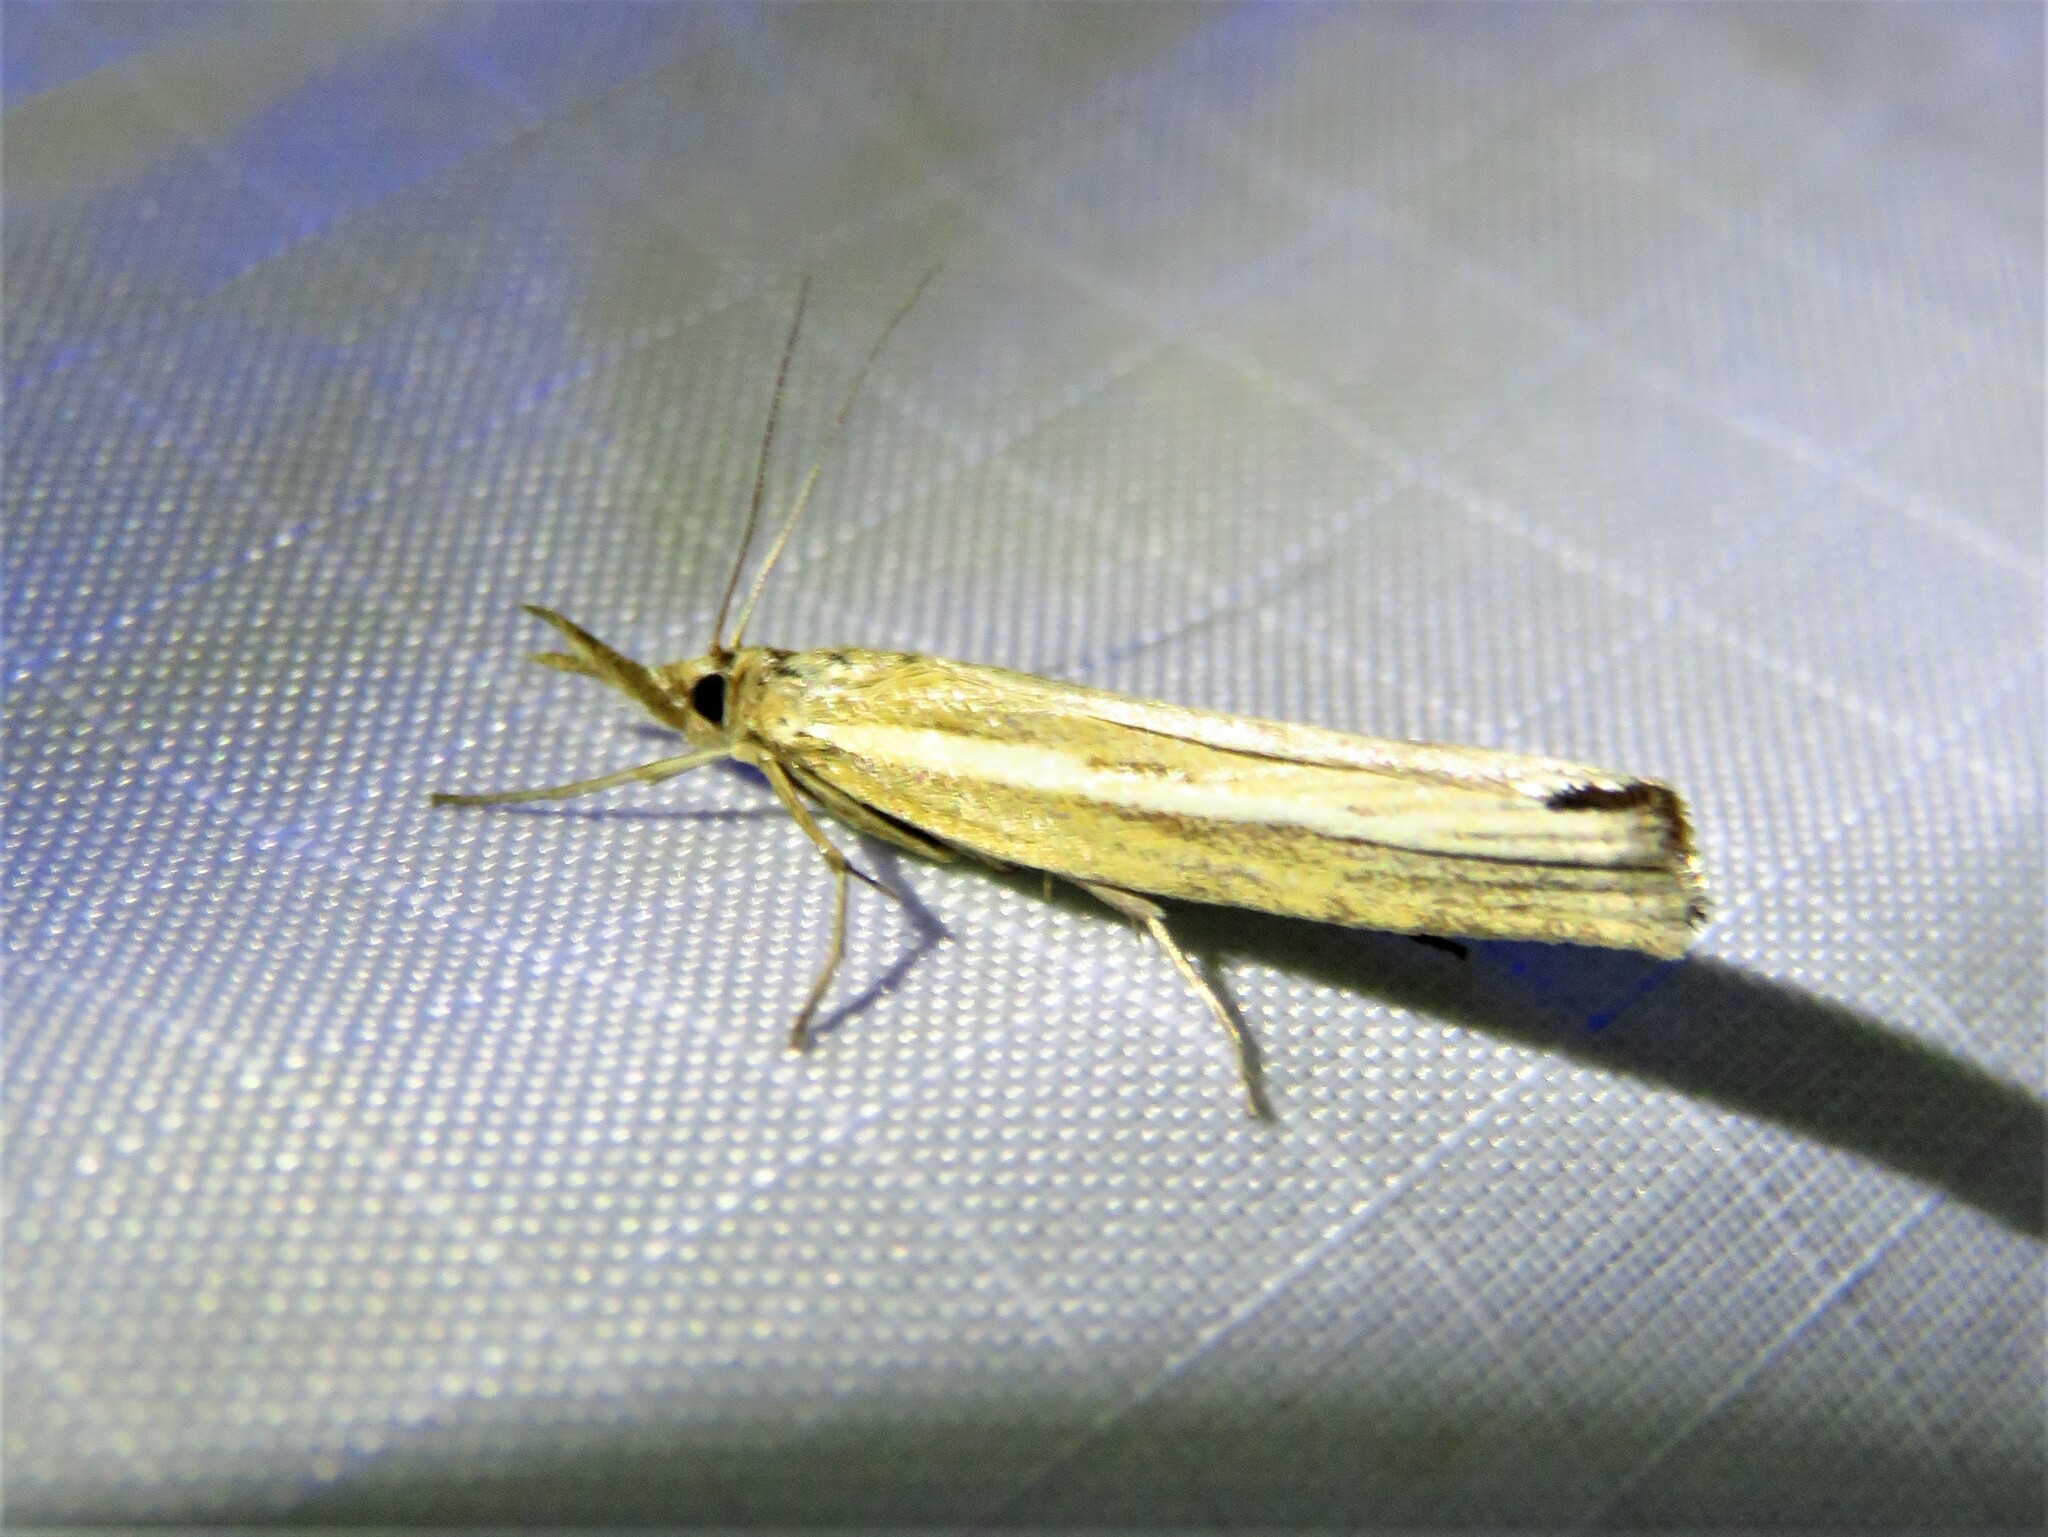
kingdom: Animalia
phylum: Arthropoda
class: Insecta
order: Lepidoptera
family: Crambidae
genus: Agriphila
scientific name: Agriphila tristellus
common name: Common grass-veneer
